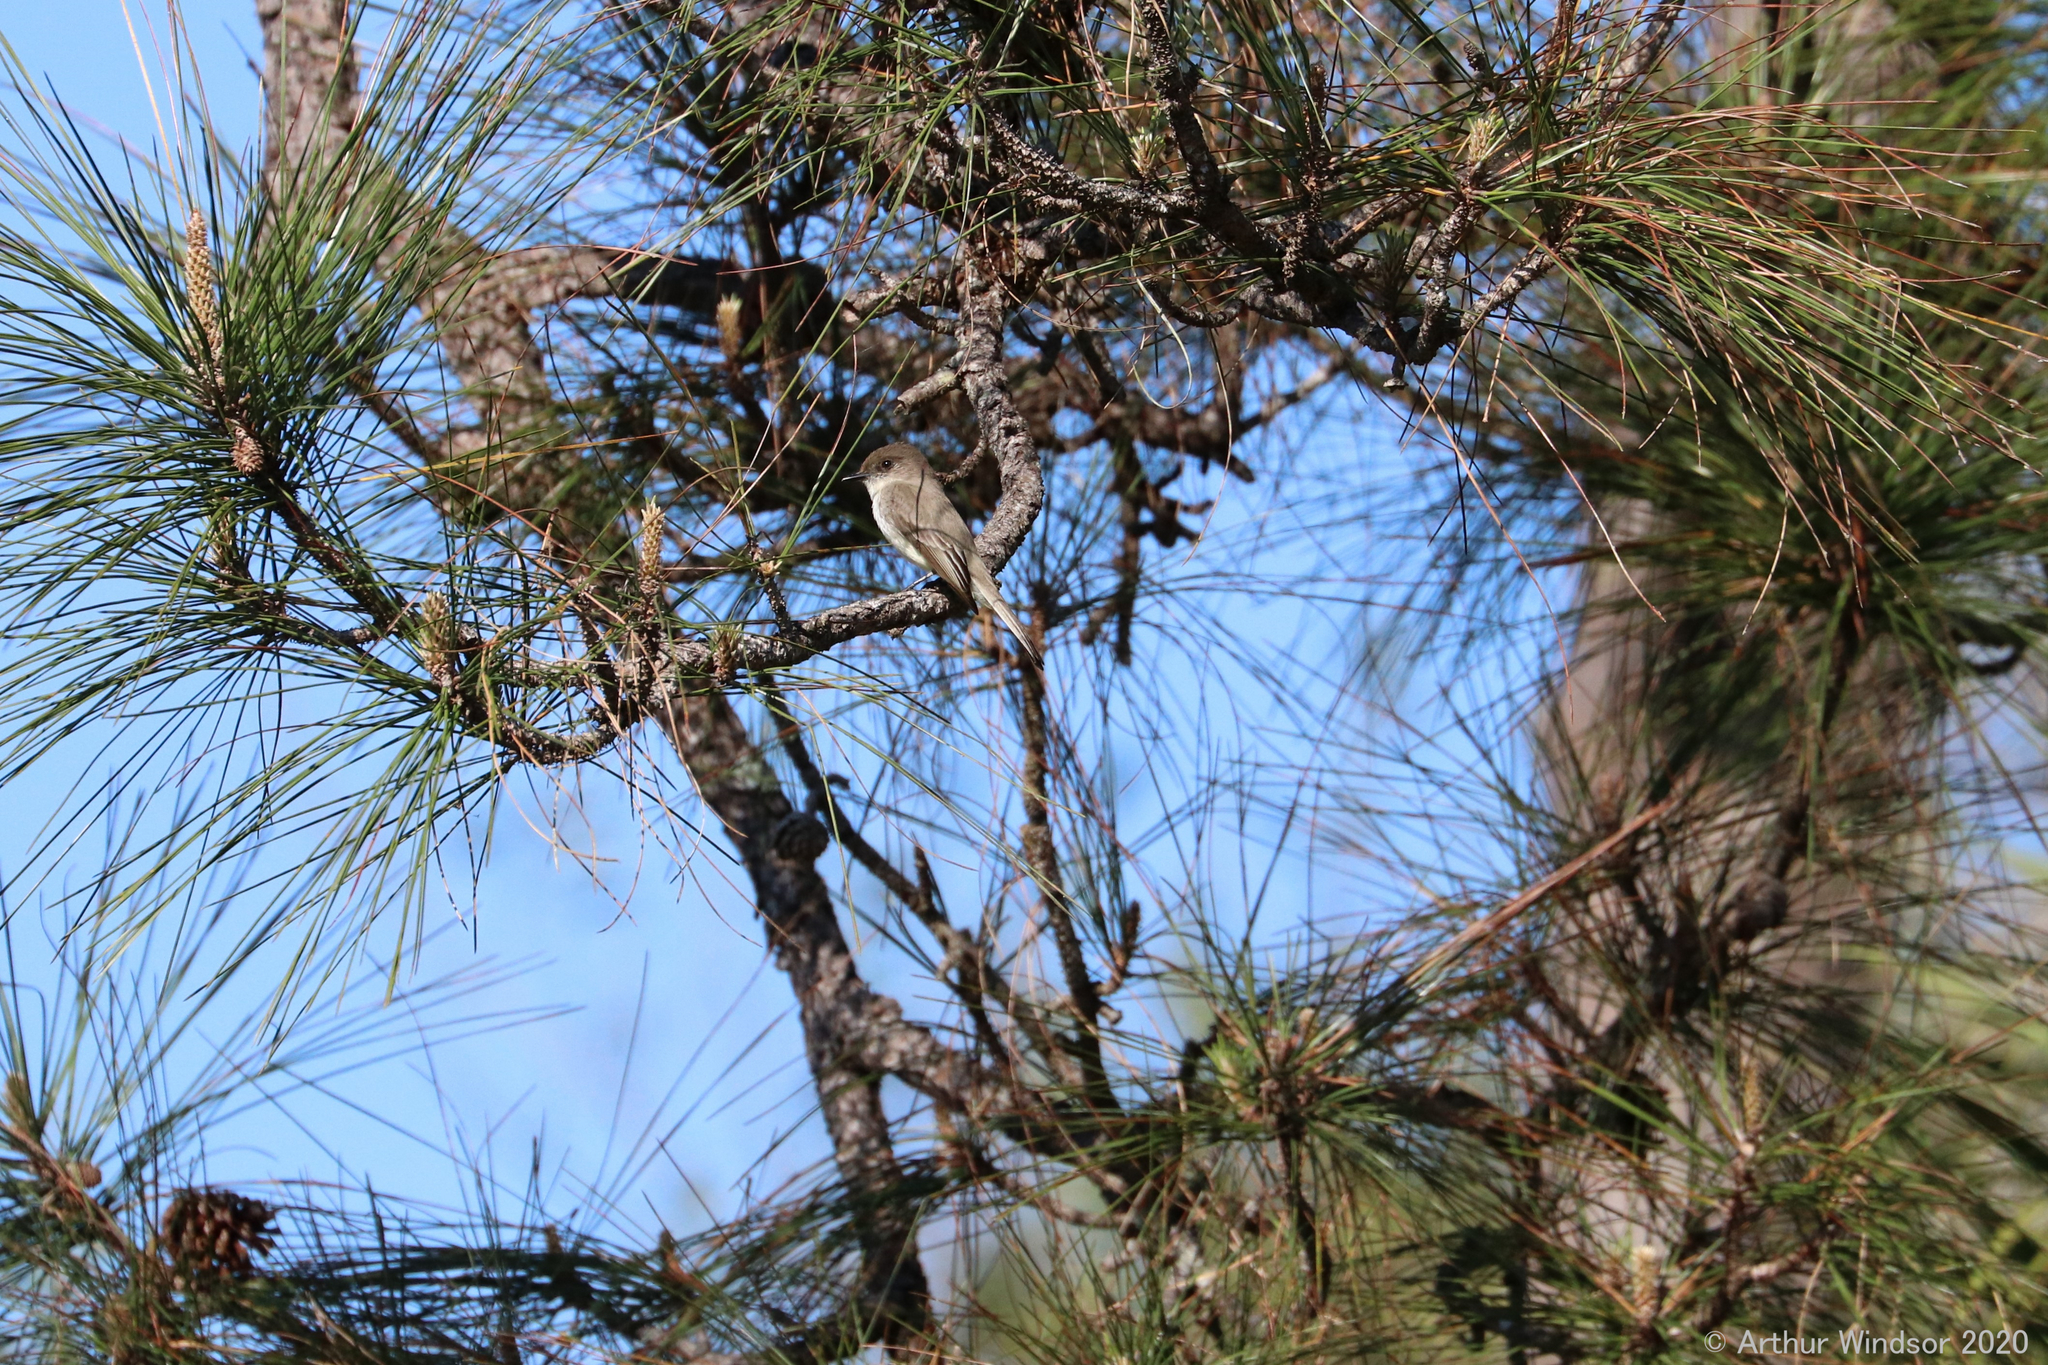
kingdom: Animalia
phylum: Chordata
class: Aves
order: Passeriformes
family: Tyrannidae
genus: Sayornis
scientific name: Sayornis phoebe
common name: Eastern phoebe
